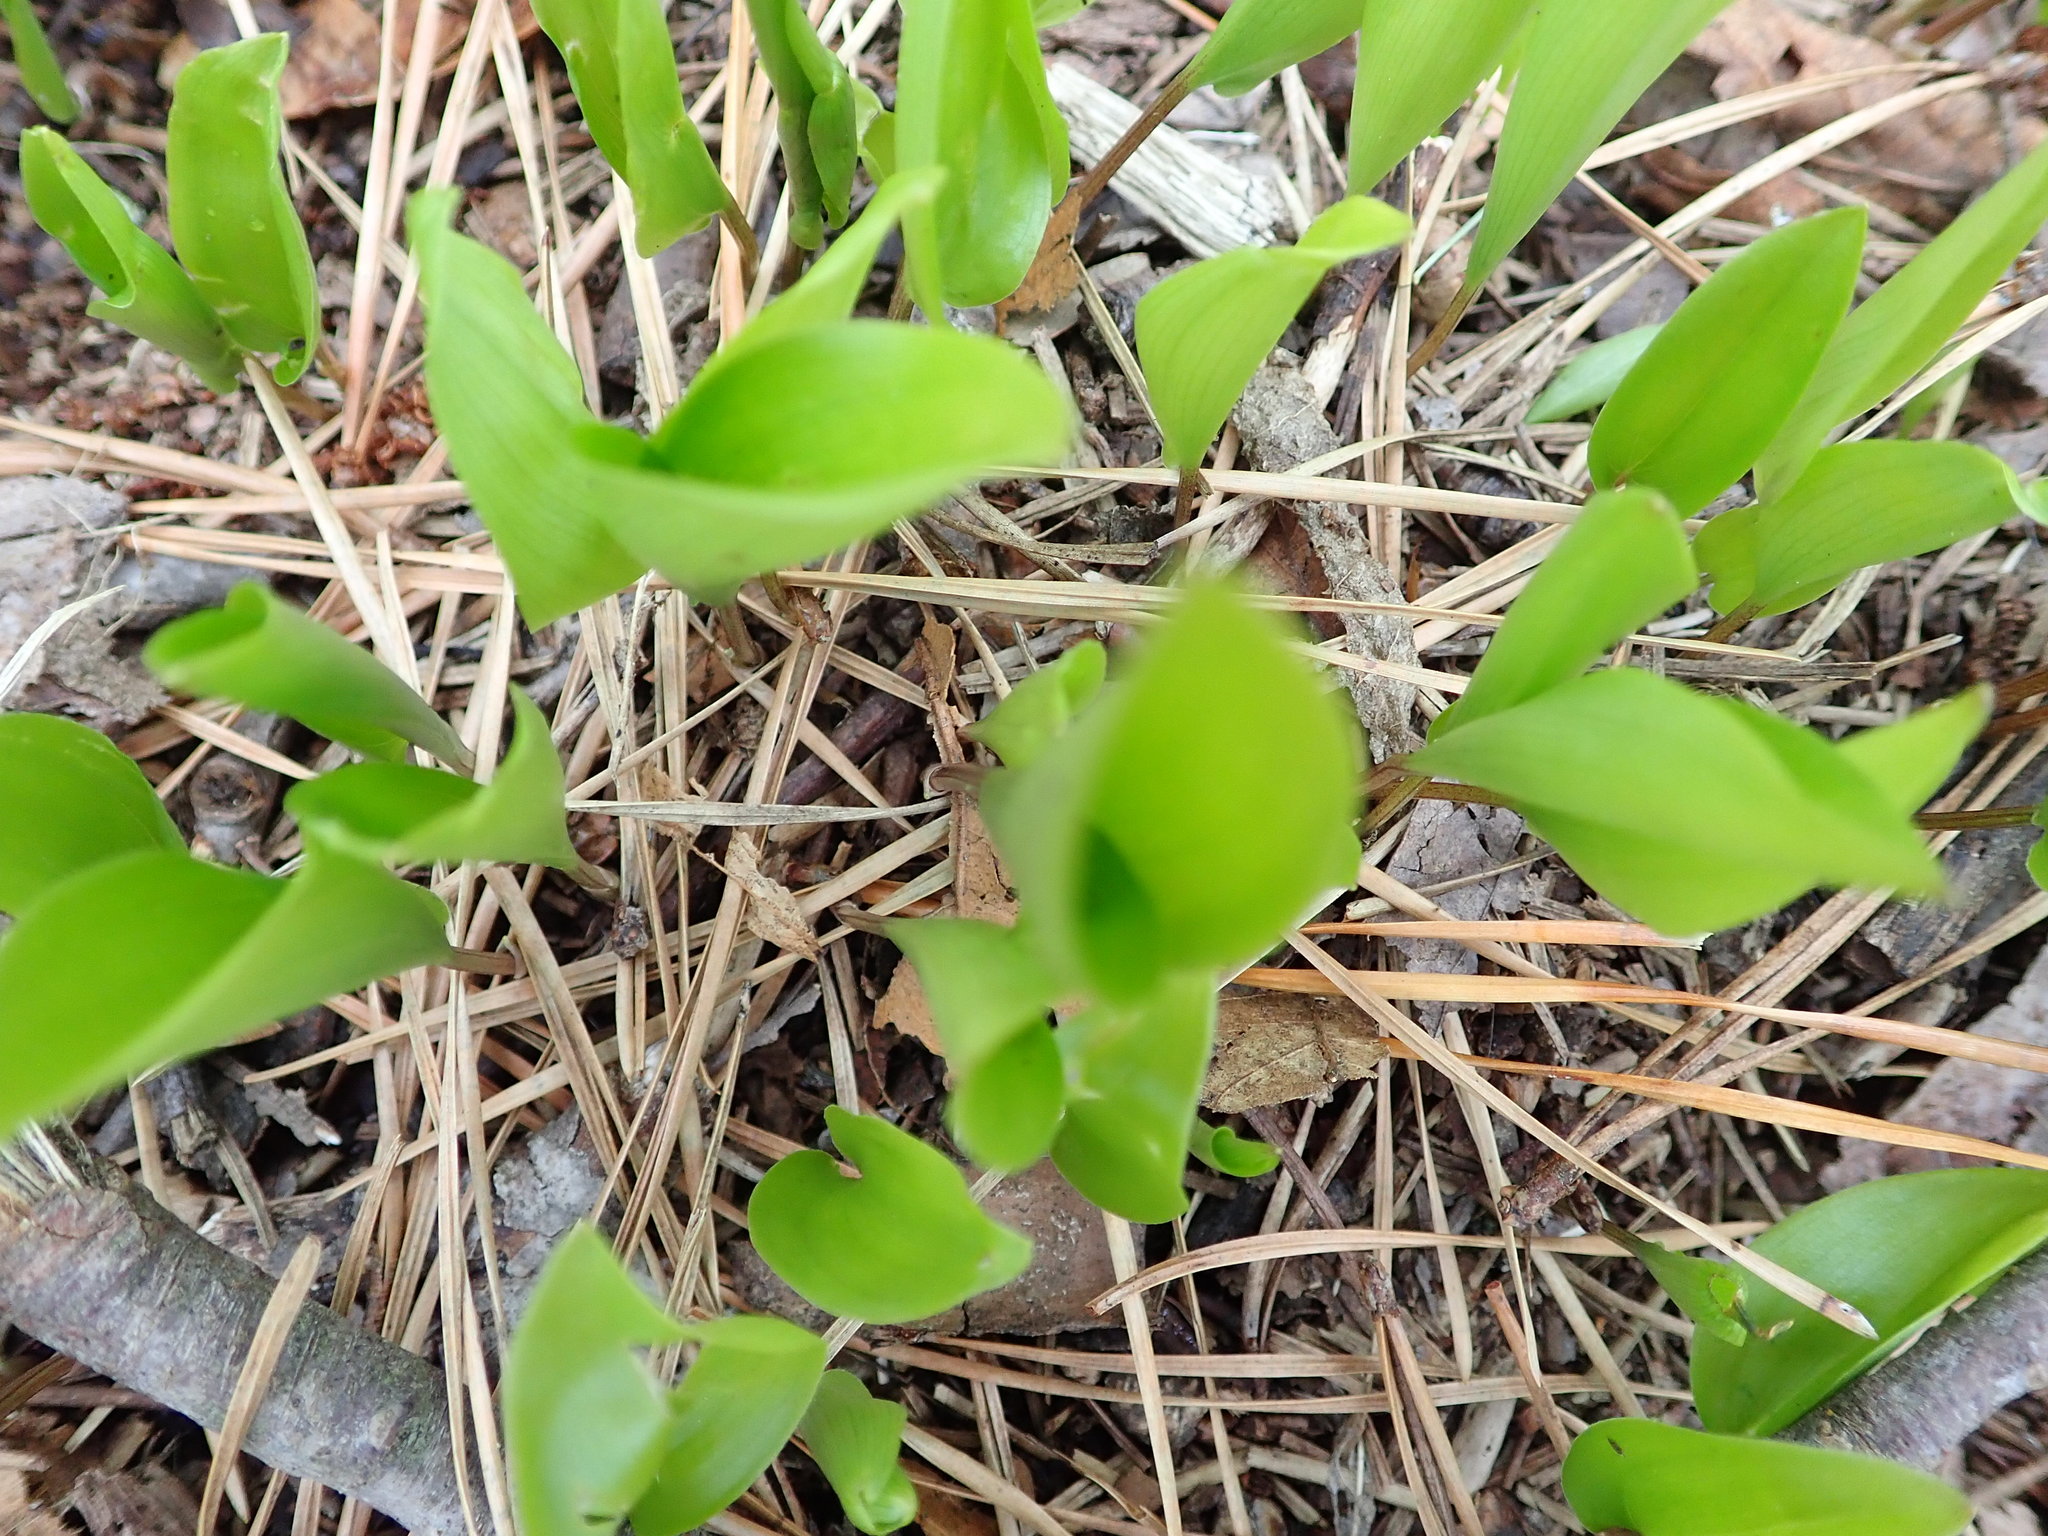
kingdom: Plantae
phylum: Tracheophyta
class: Liliopsida
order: Asparagales
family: Asparagaceae
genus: Maianthemum
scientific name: Maianthemum canadense
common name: False lily-of-the-valley
